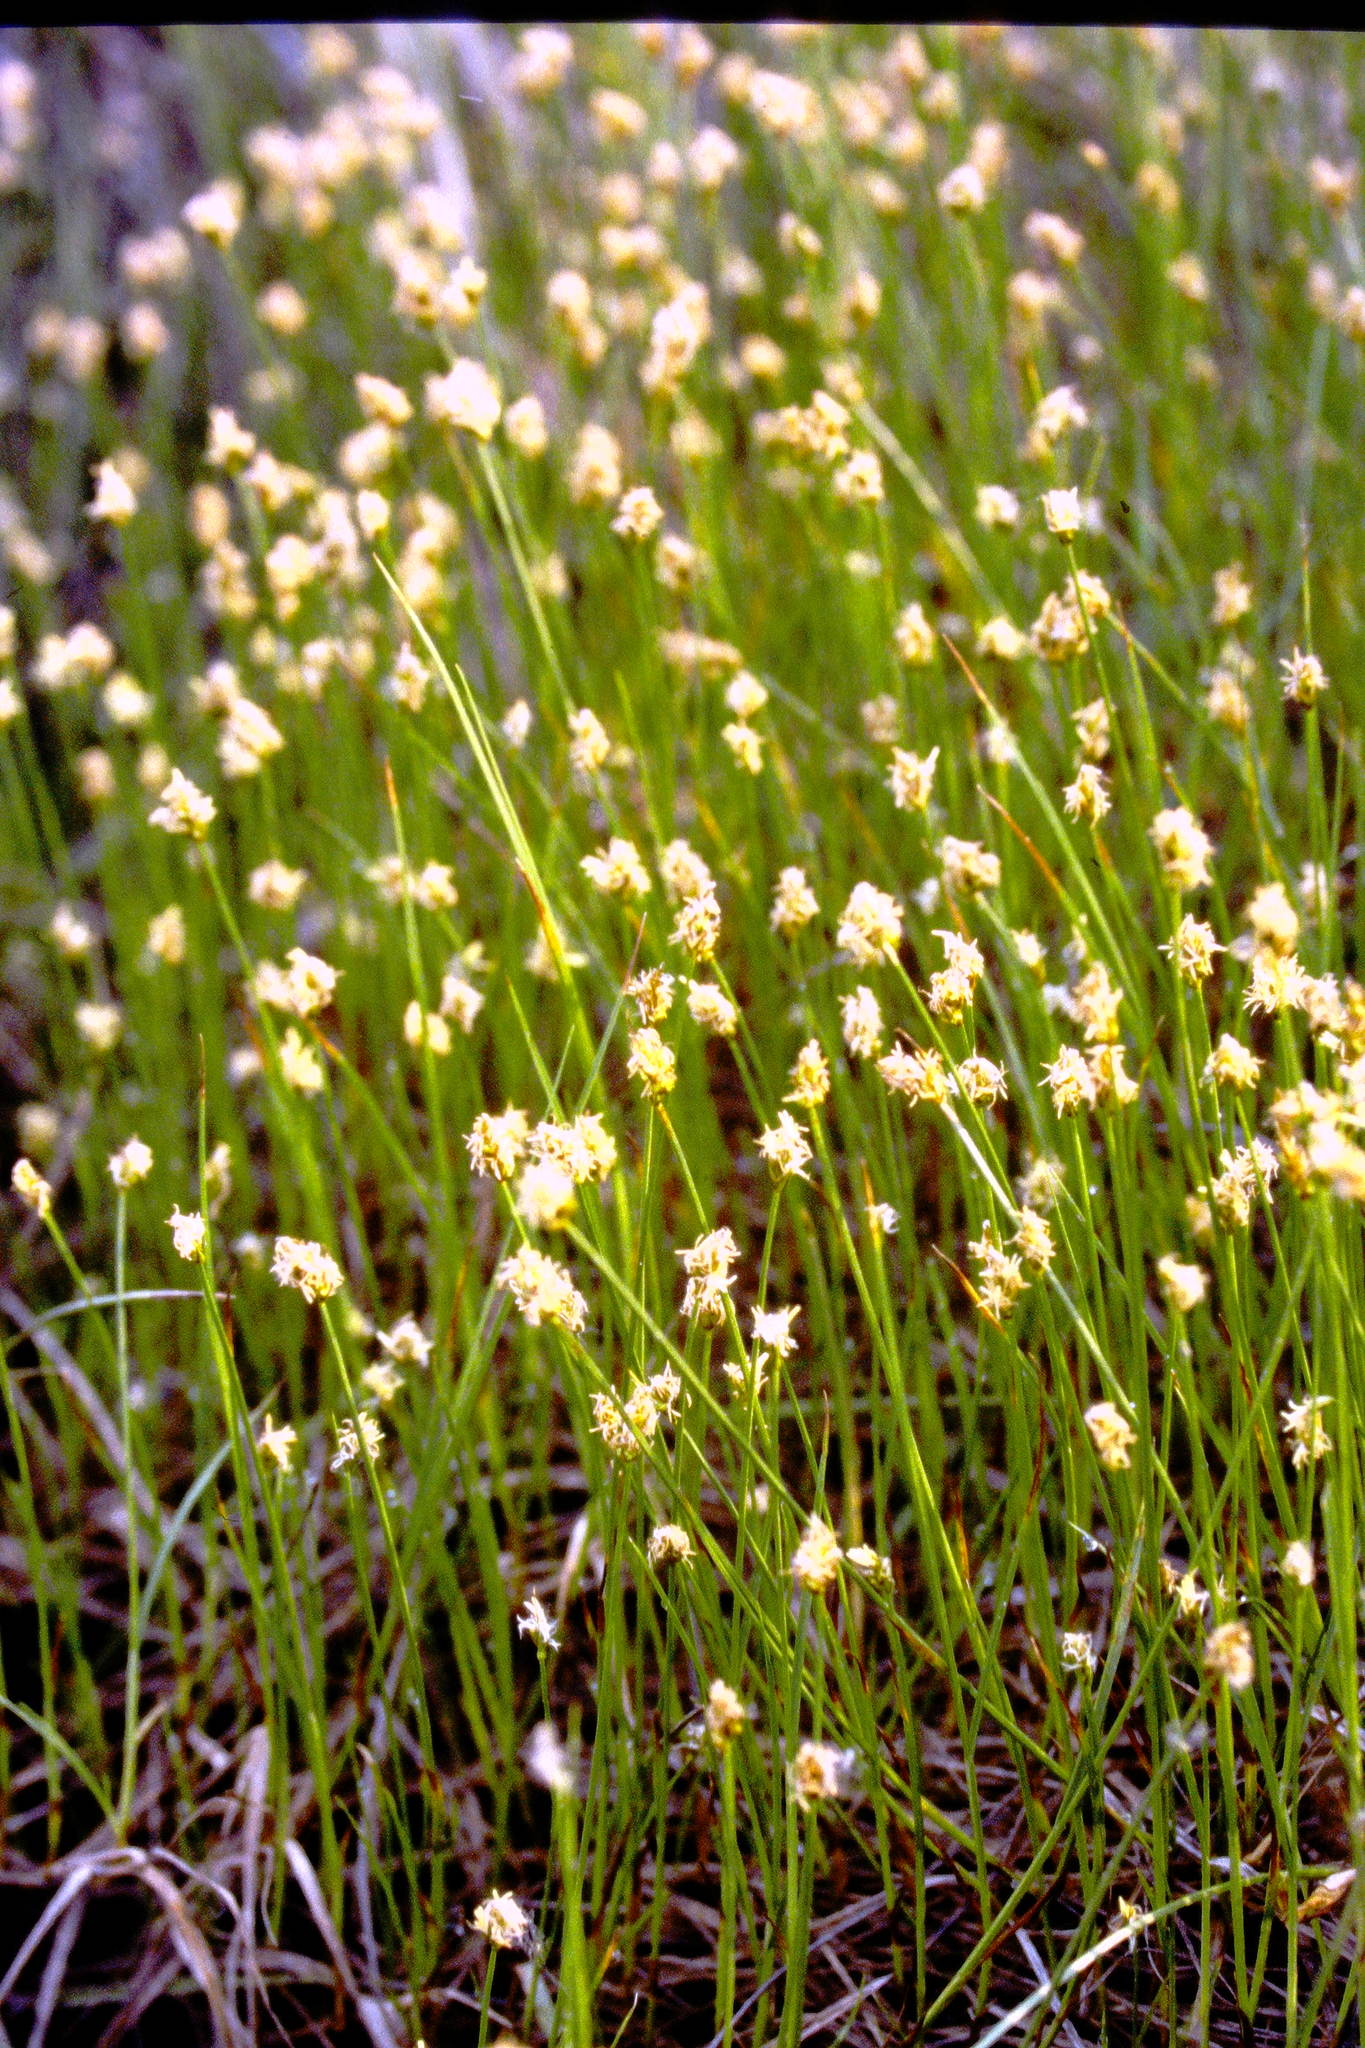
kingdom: Plantae
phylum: Tracheophyta
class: Liliopsida
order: Poales
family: Cyperaceae
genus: Carex
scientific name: Carex chordorrhiza
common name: String sedge
